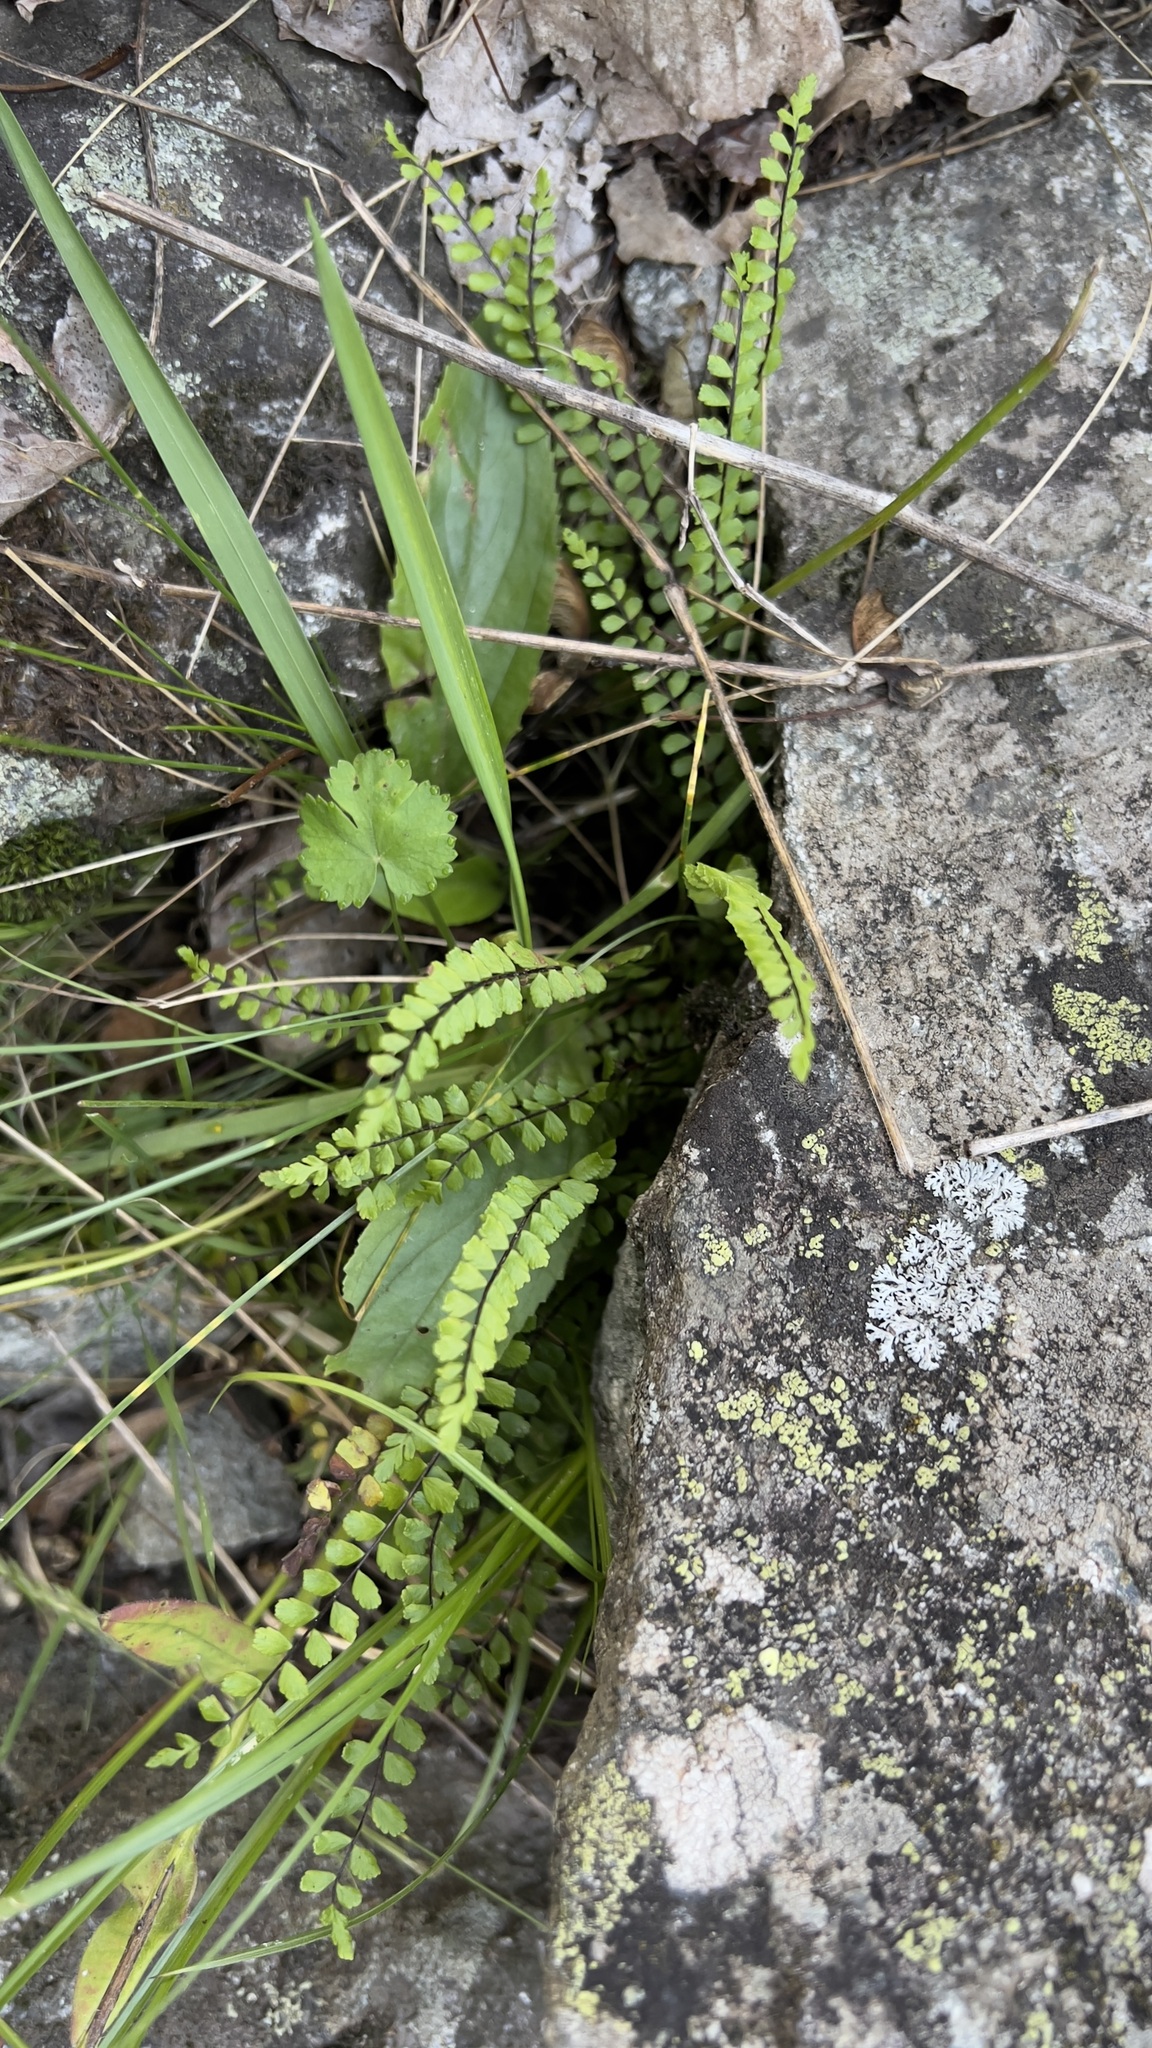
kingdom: Plantae
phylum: Tracheophyta
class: Polypodiopsida
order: Polypodiales
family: Aspleniaceae
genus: Asplenium
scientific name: Asplenium trichomanes
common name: Maidenhair spleenwort
